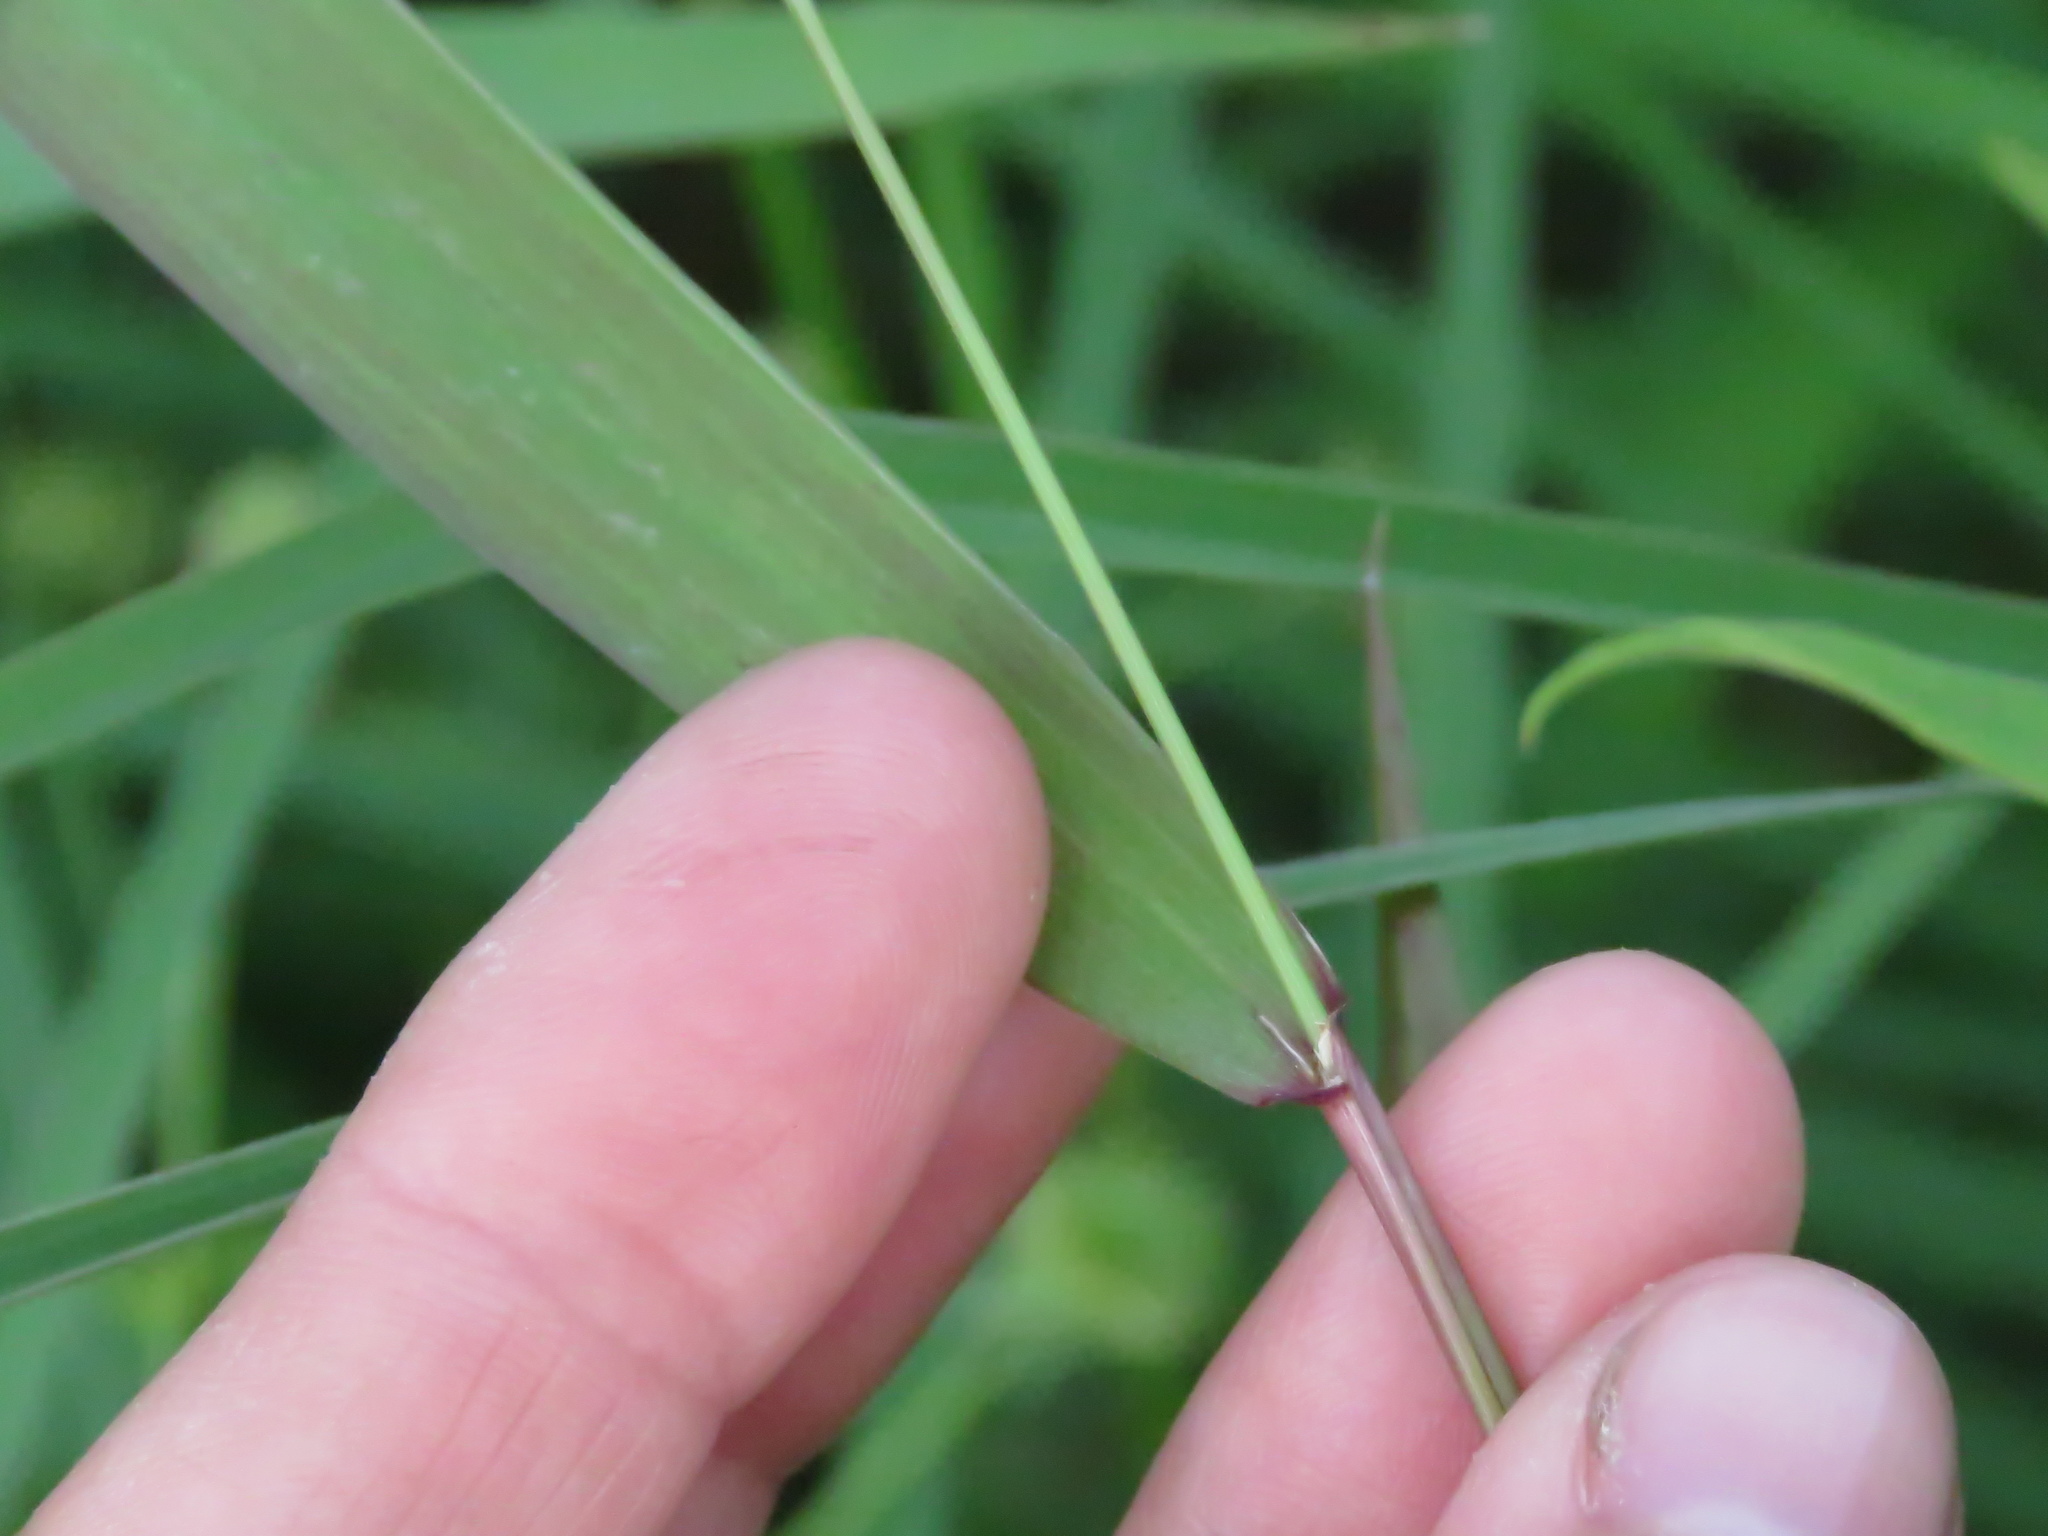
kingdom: Plantae
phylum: Tracheophyta
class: Liliopsida
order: Poales
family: Poaceae
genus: Elymus
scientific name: Elymus canadensis
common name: Canada wild rye
